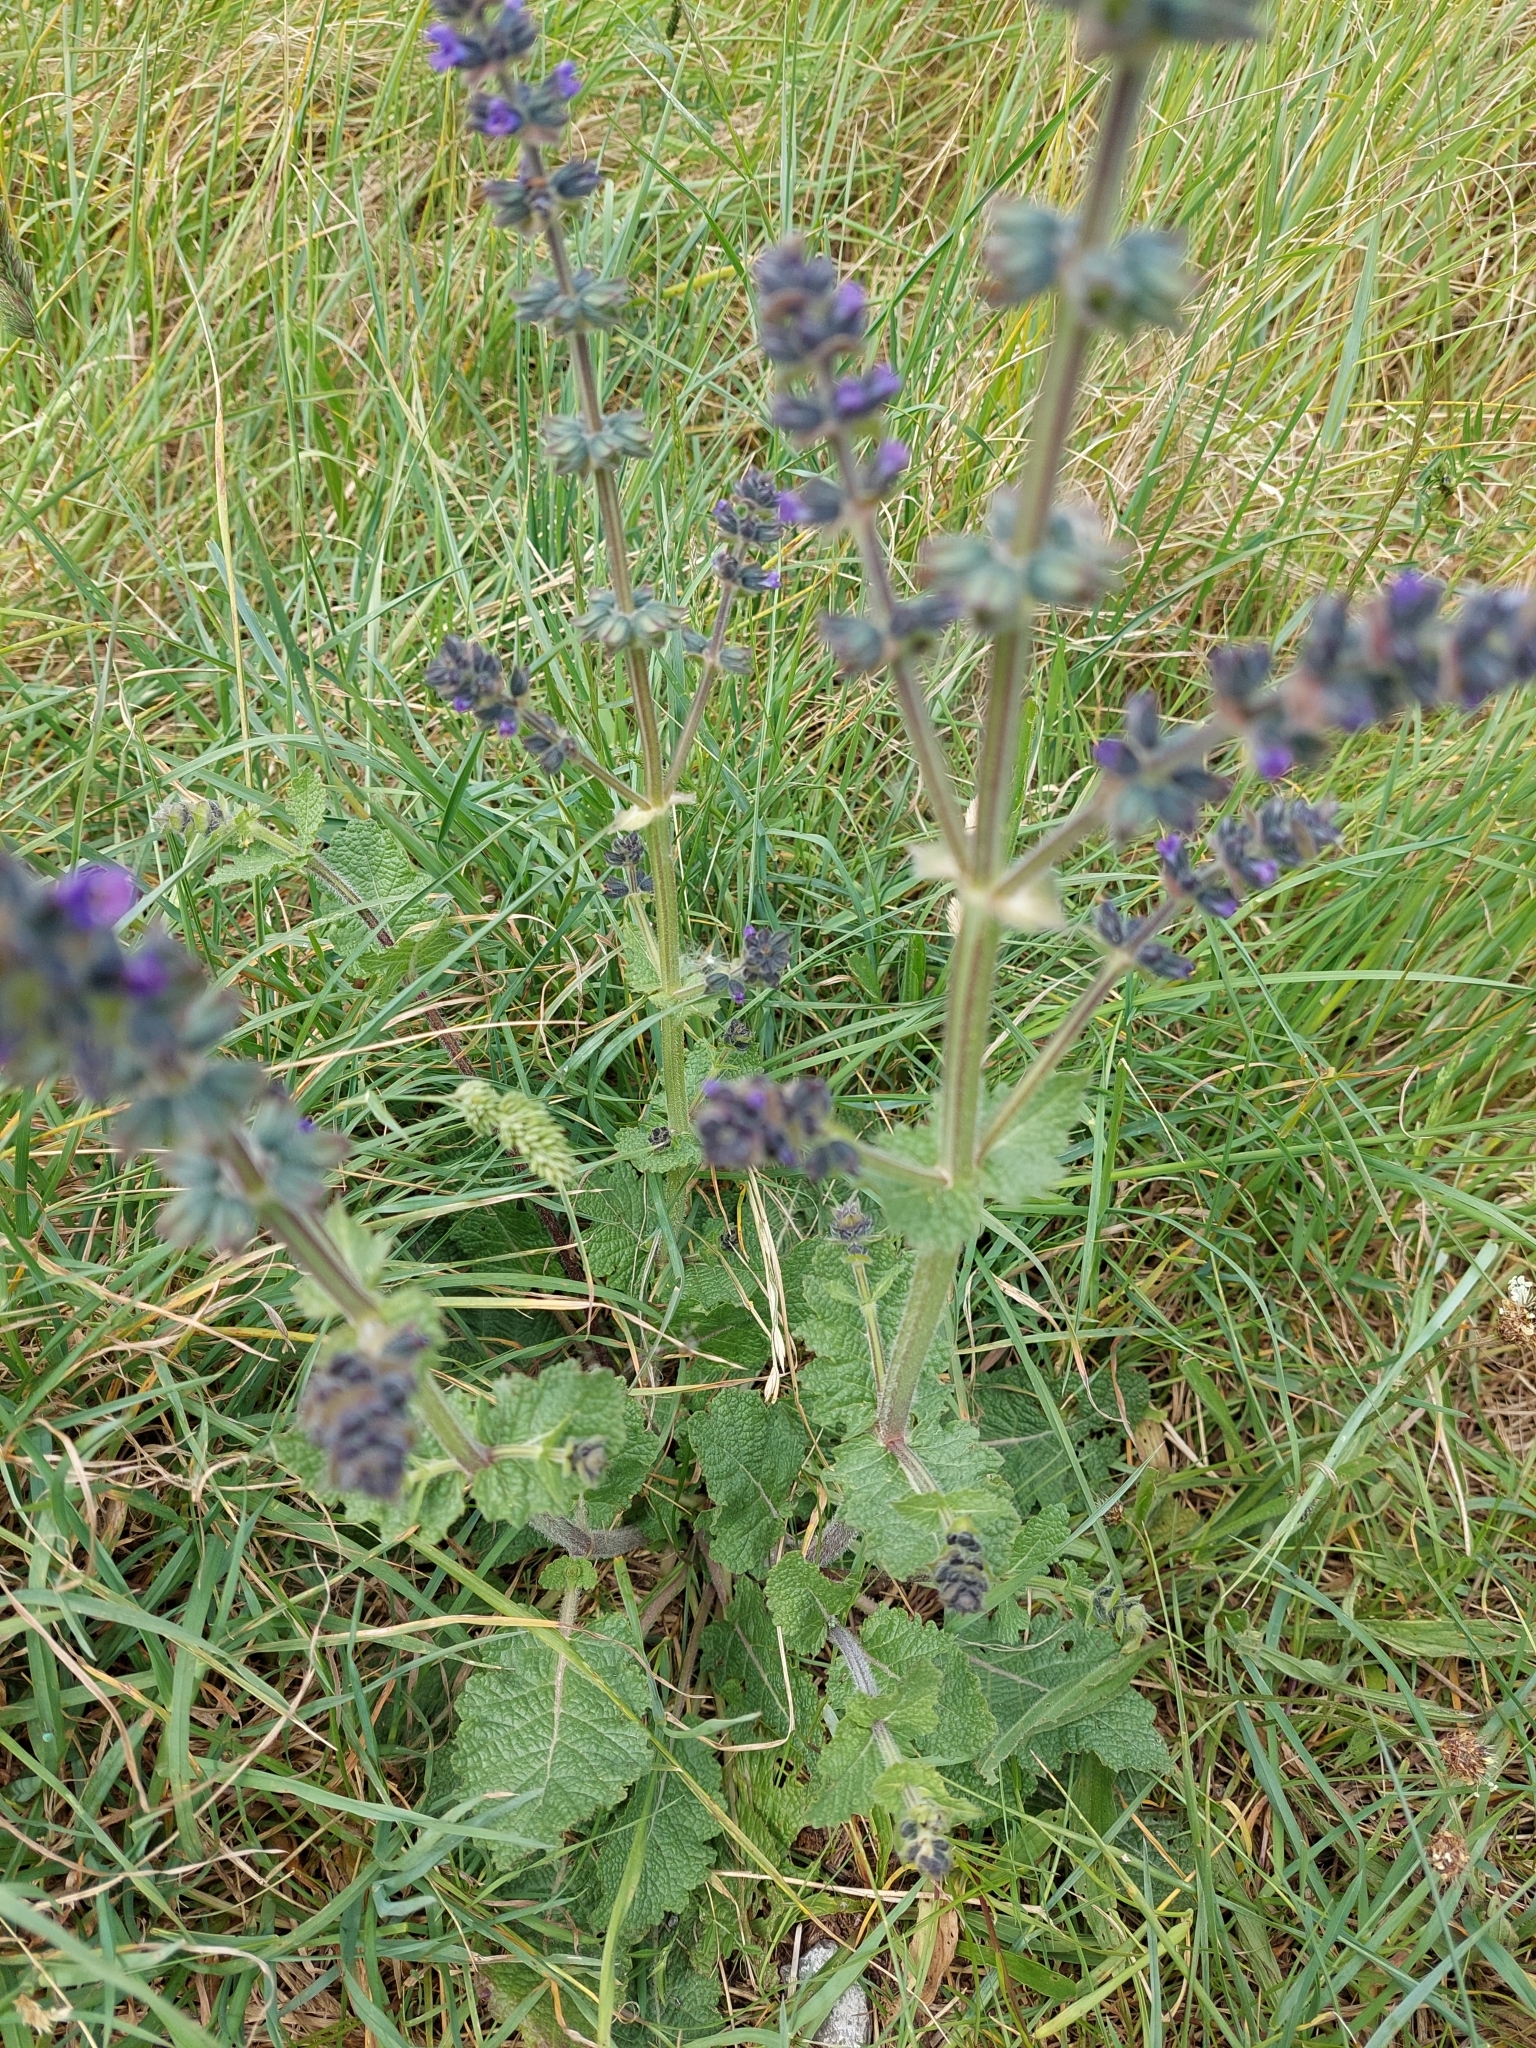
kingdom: Plantae
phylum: Tracheophyta
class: Magnoliopsida
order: Lamiales
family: Lamiaceae
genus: Salvia
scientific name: Salvia verbenaca
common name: Wild clary
